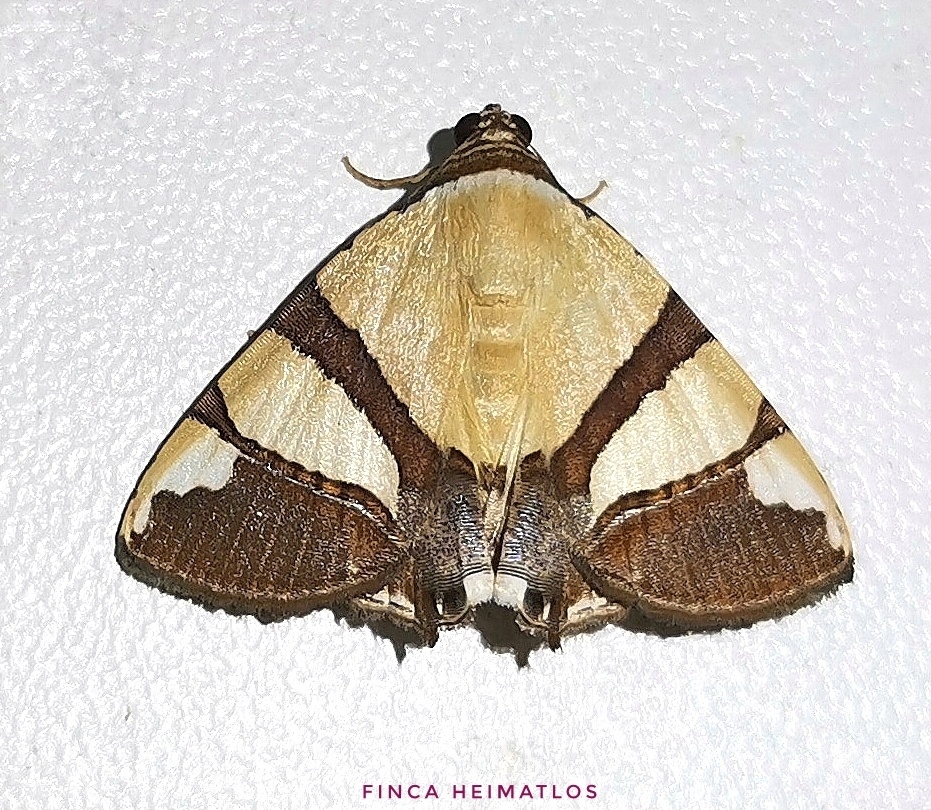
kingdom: Animalia
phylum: Arthropoda
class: Insecta
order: Lepidoptera
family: Erebidae
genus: Eulepidotis
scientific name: Eulepidotis julianata
